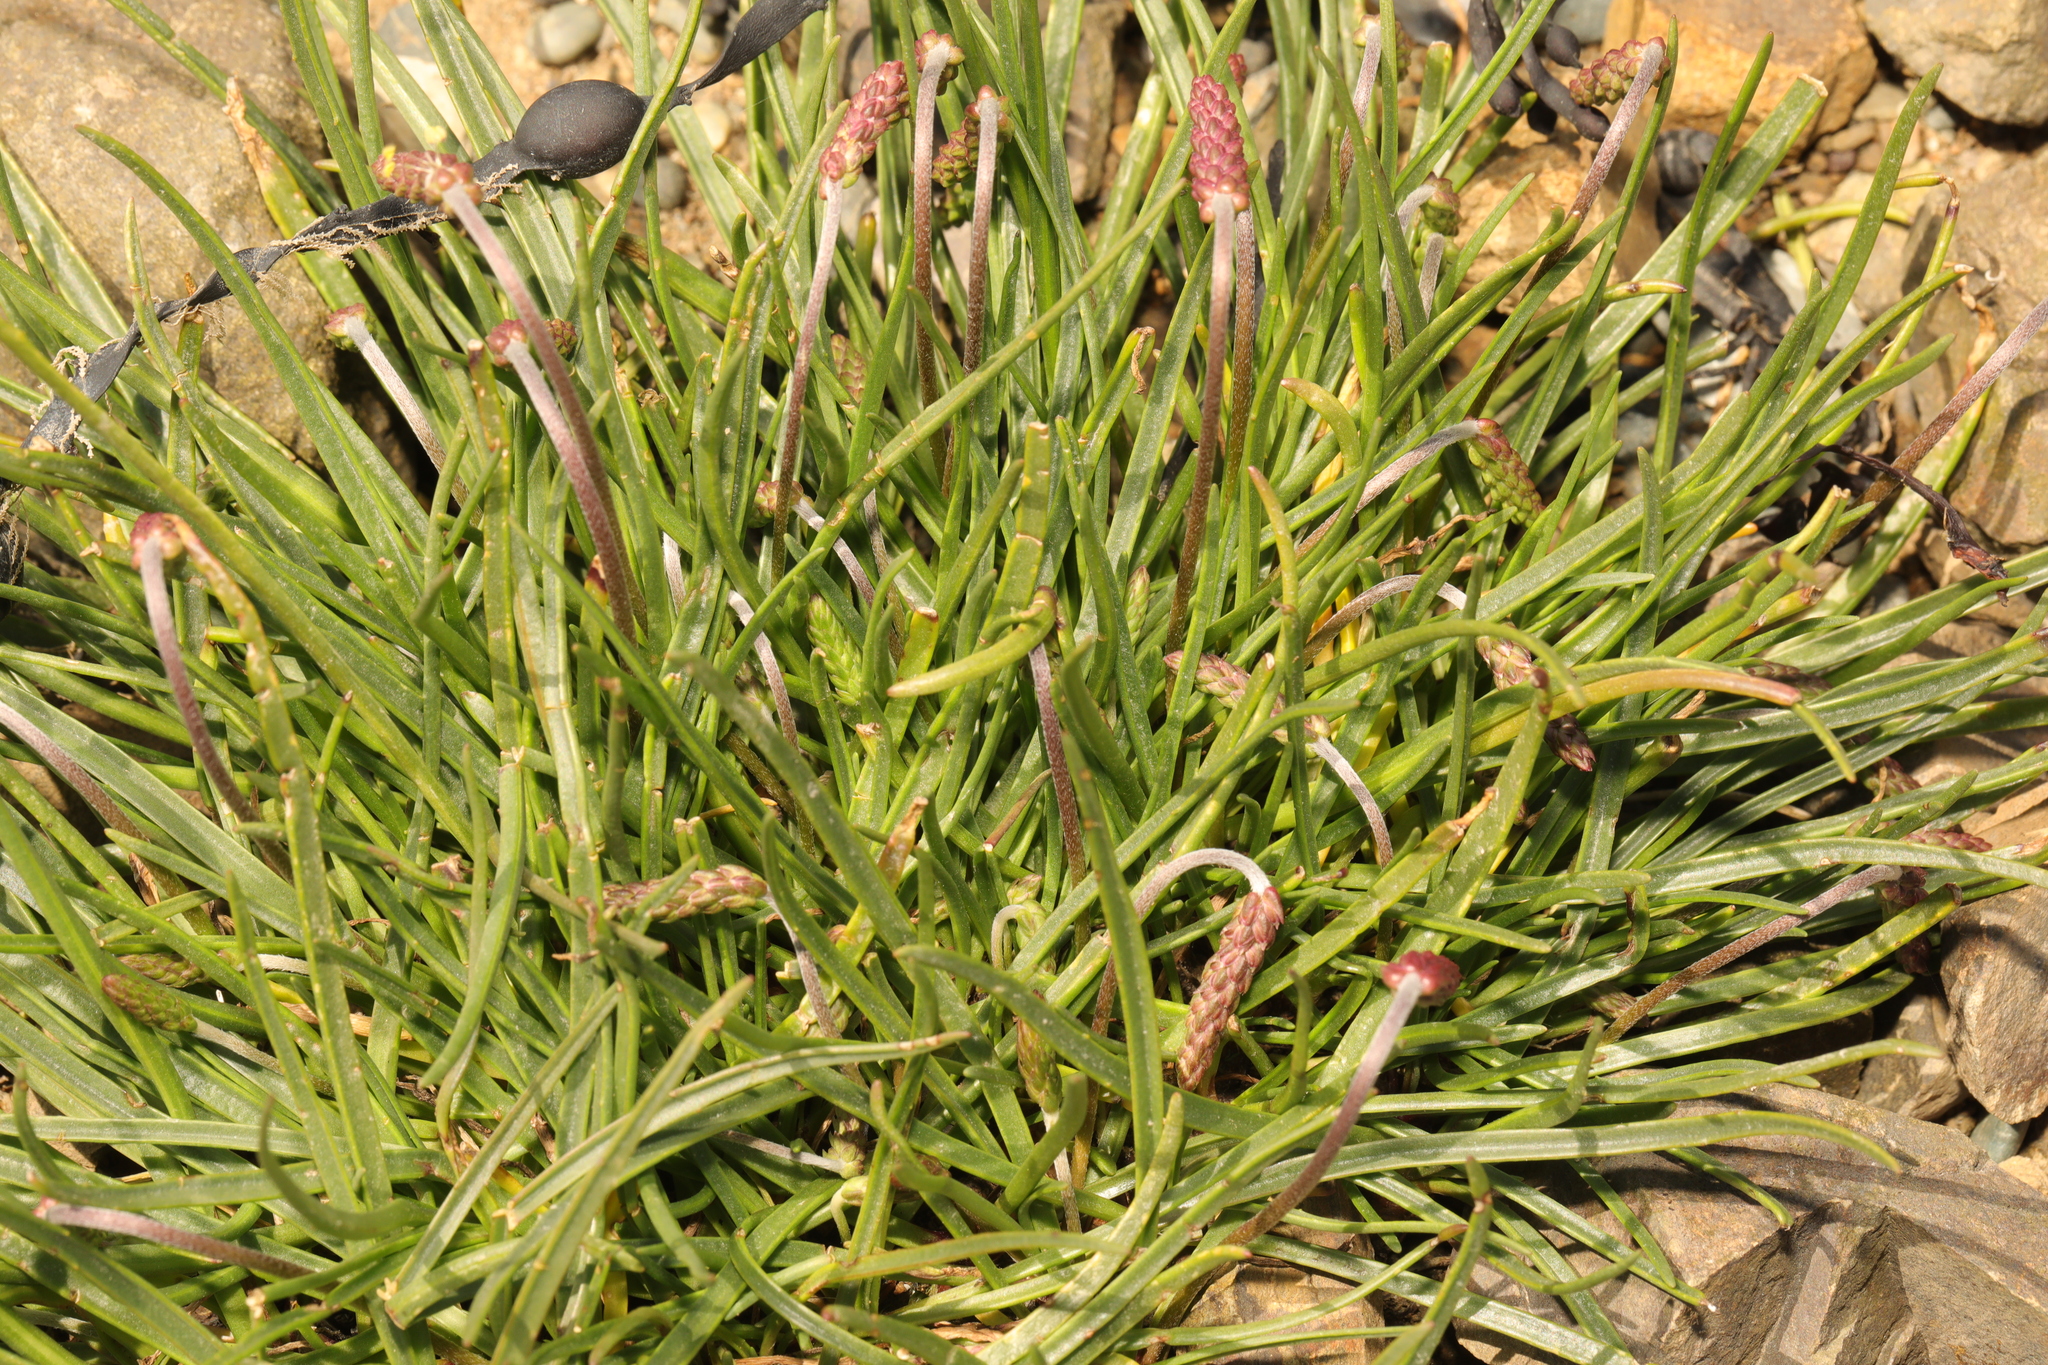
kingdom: Plantae
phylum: Tracheophyta
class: Magnoliopsida
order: Lamiales
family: Plantaginaceae
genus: Plantago
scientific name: Plantago maritima
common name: Sea plantain
